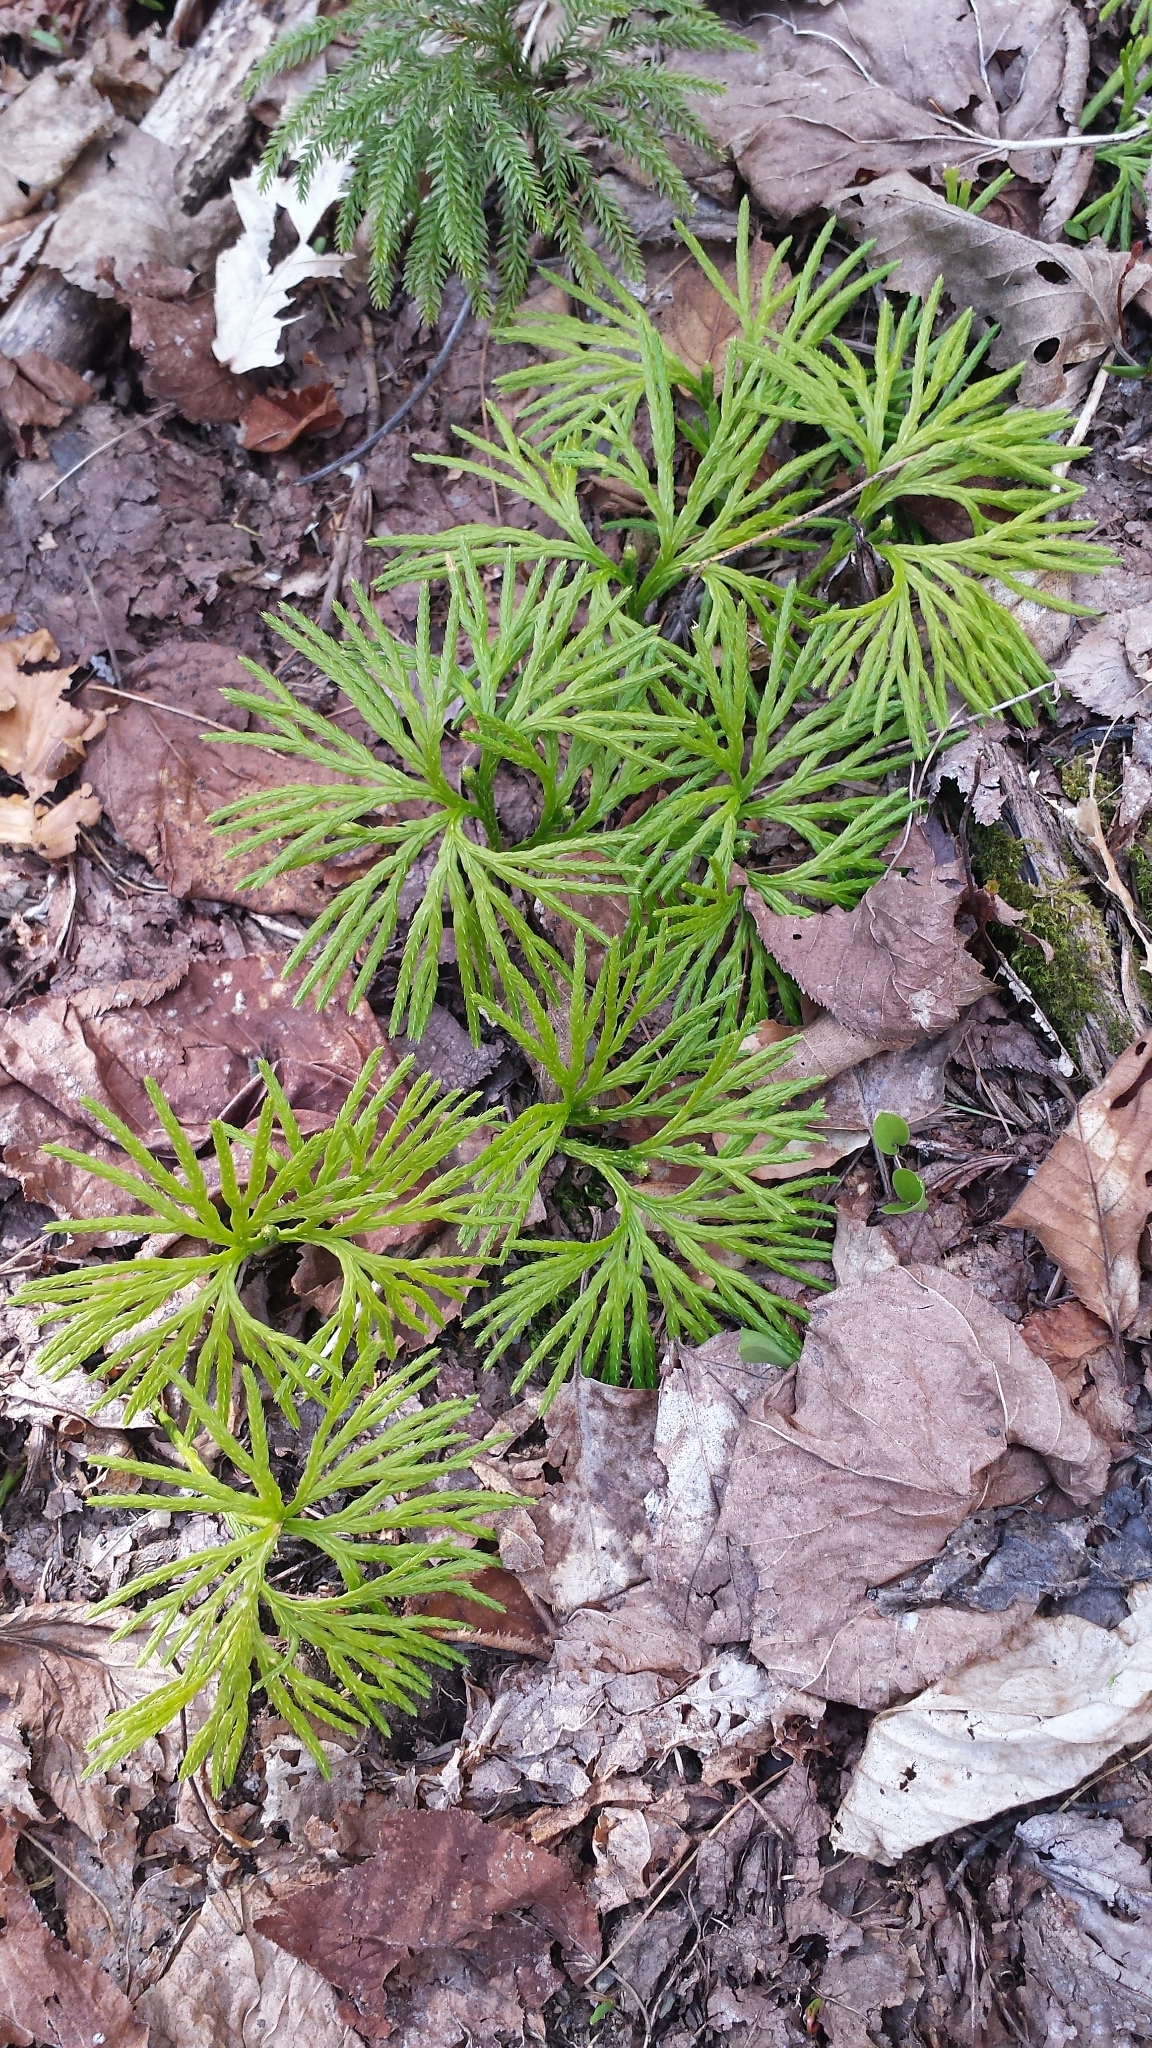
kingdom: Plantae
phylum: Tracheophyta
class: Lycopodiopsida
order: Lycopodiales
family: Lycopodiaceae
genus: Diphasiastrum
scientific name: Diphasiastrum digitatum
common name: Southern running-pine
